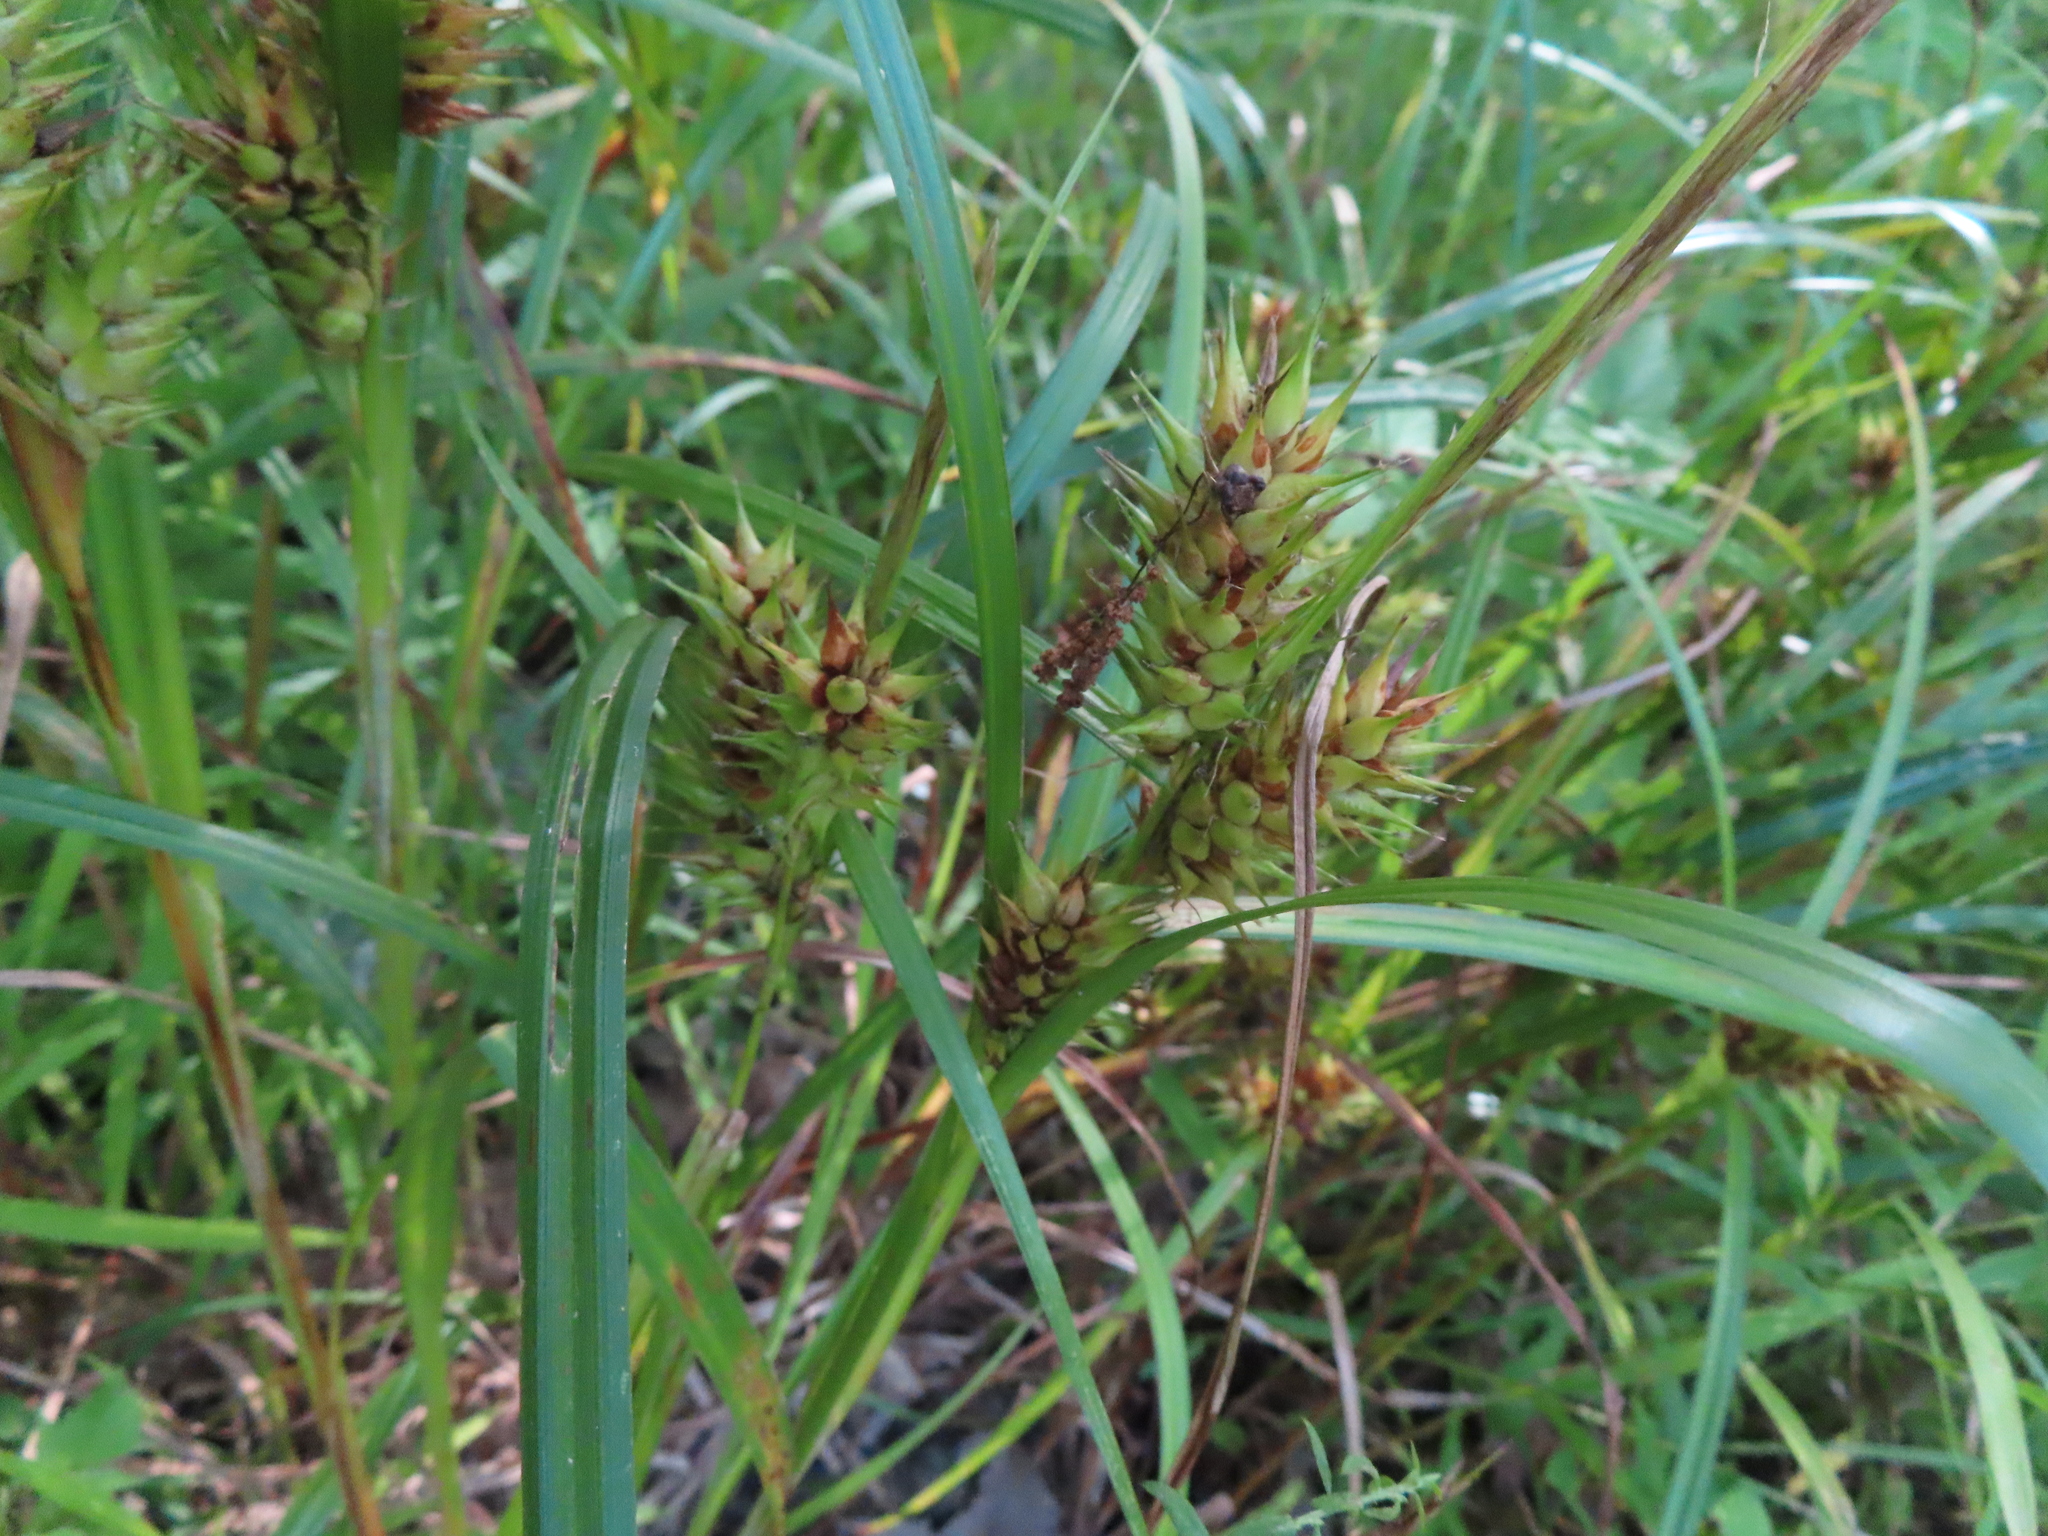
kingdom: Plantae
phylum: Tracheophyta
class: Liliopsida
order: Poales
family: Cyperaceae
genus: Carex
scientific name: Carex lupulina
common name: Hop sedge
